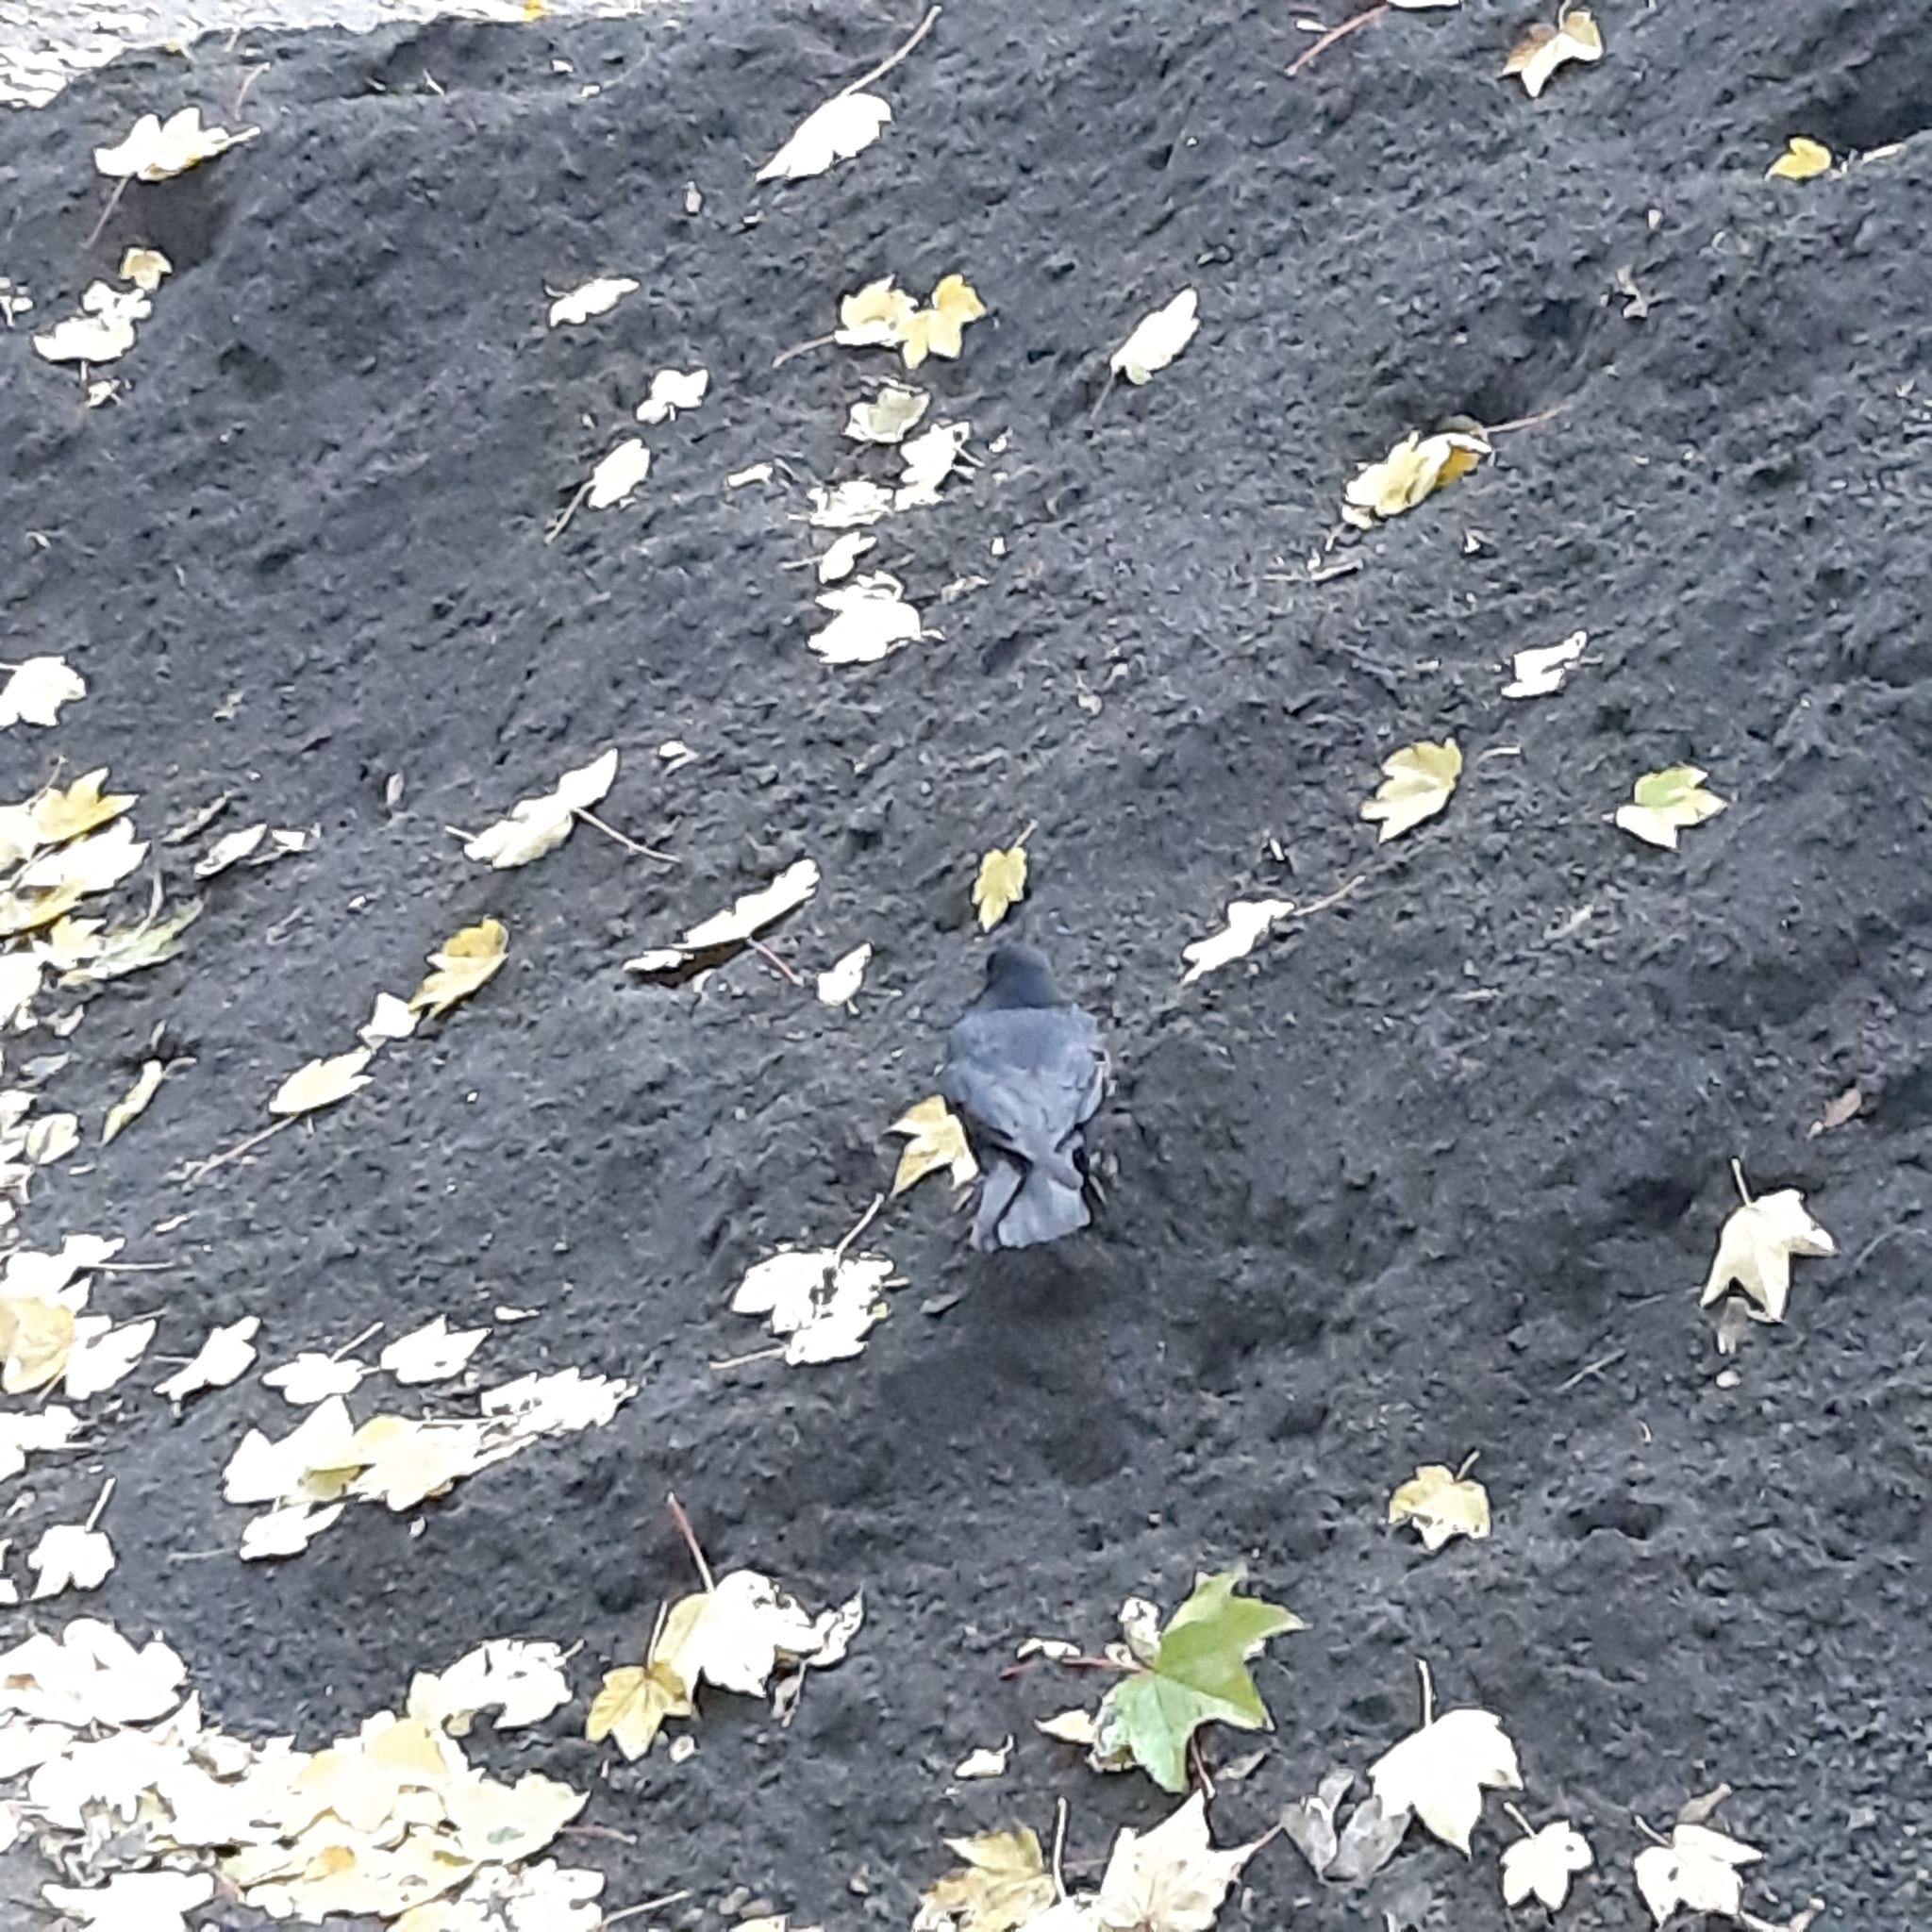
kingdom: Animalia
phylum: Chordata
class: Aves
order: Columbiformes
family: Columbidae
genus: Columba
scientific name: Columba livia
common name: Rock pigeon
